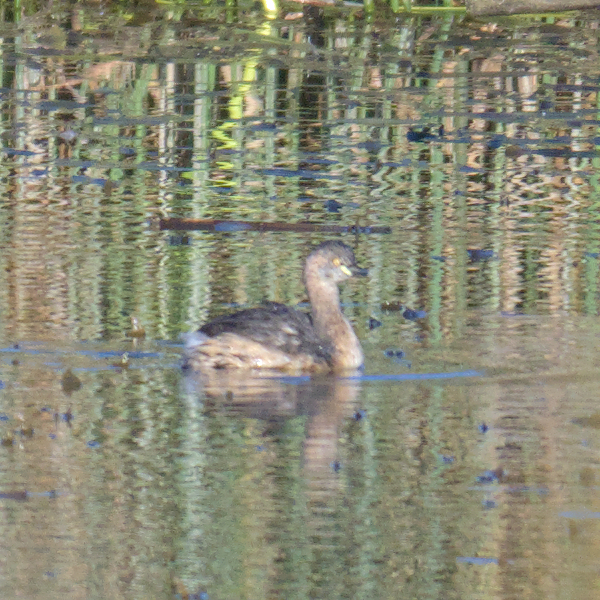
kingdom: Animalia
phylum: Chordata
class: Aves
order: Podicipediformes
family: Podicipedidae
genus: Tachybaptus
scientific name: Tachybaptus novaehollandiae
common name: Australasian grebe
